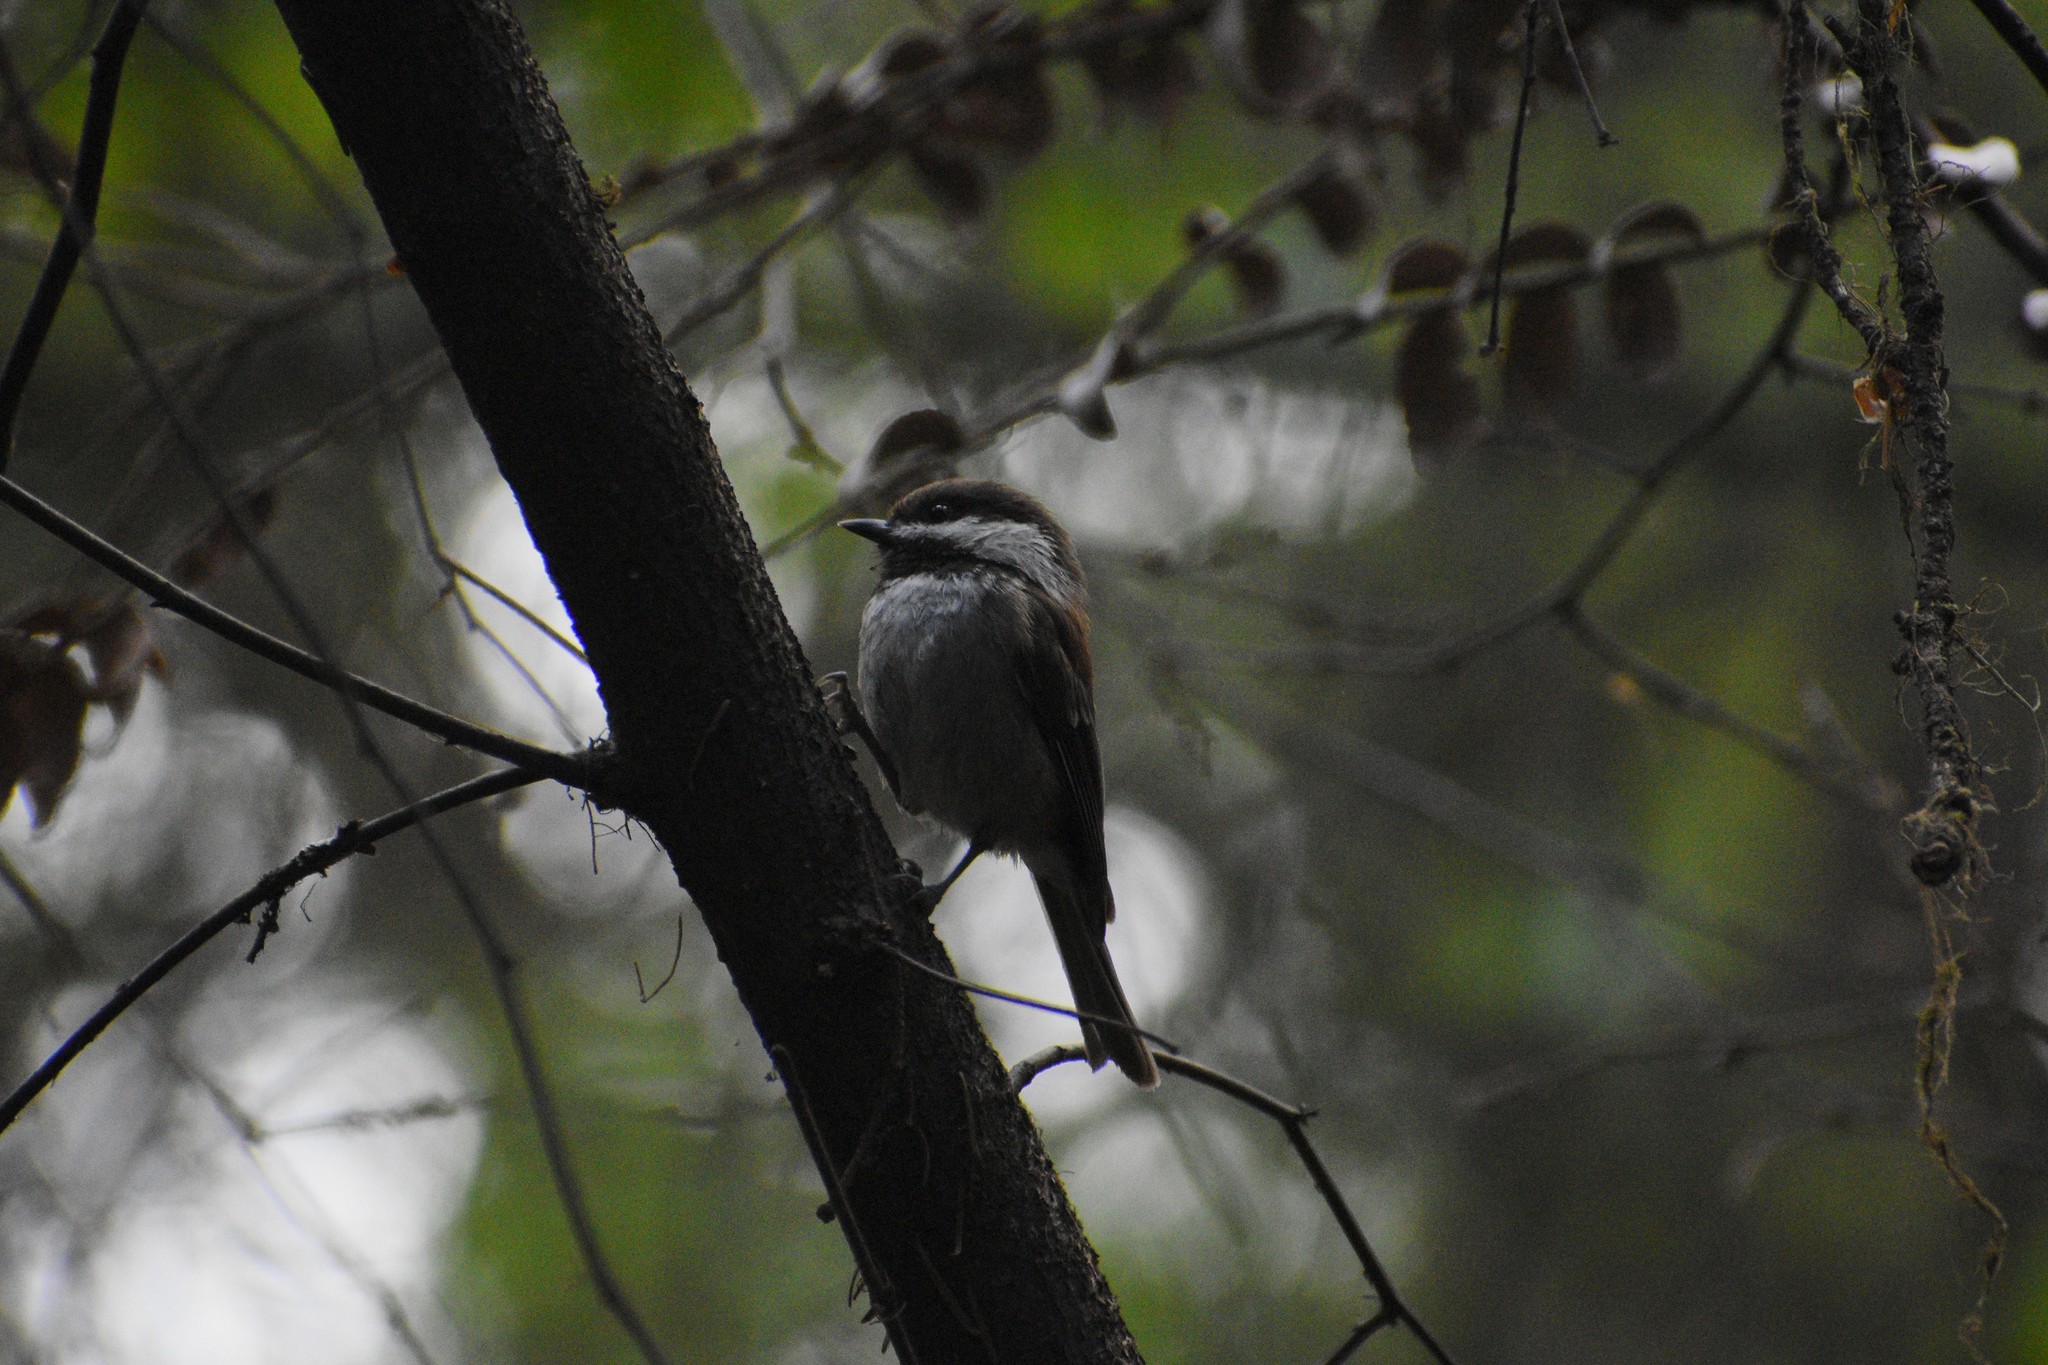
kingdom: Animalia
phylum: Chordata
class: Aves
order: Passeriformes
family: Paridae
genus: Poecile
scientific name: Poecile rufescens
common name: Chestnut-backed chickadee
